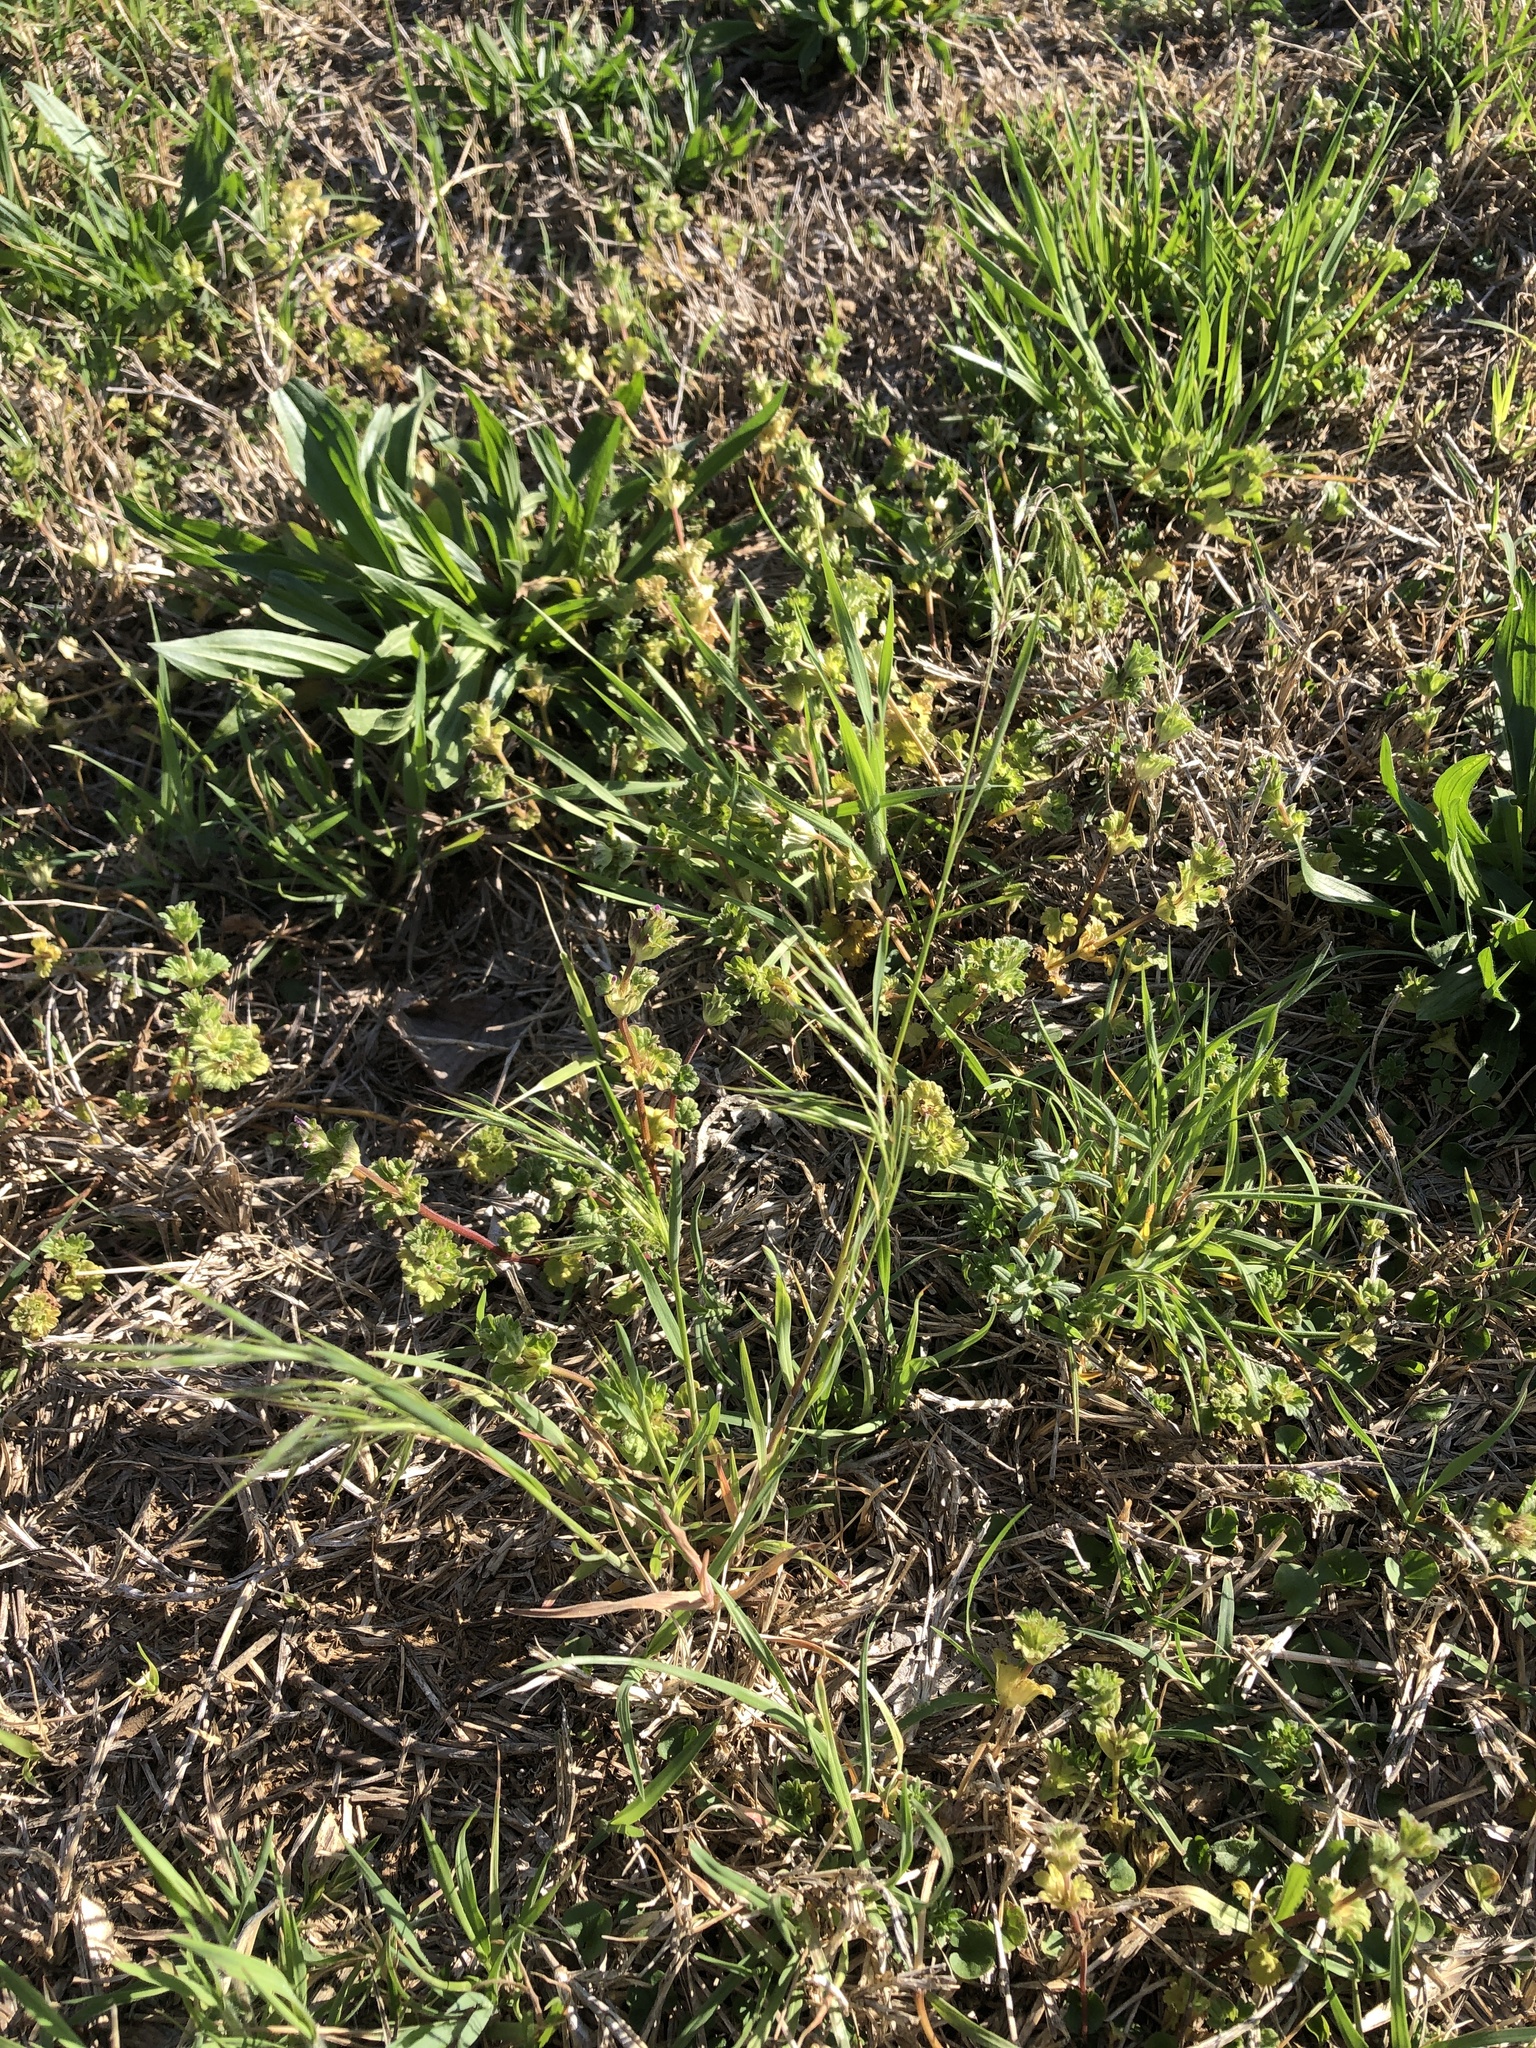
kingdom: Plantae
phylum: Tracheophyta
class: Liliopsida
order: Poales
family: Poaceae
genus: Bromus
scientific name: Bromus tectorum
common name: Cheatgrass
